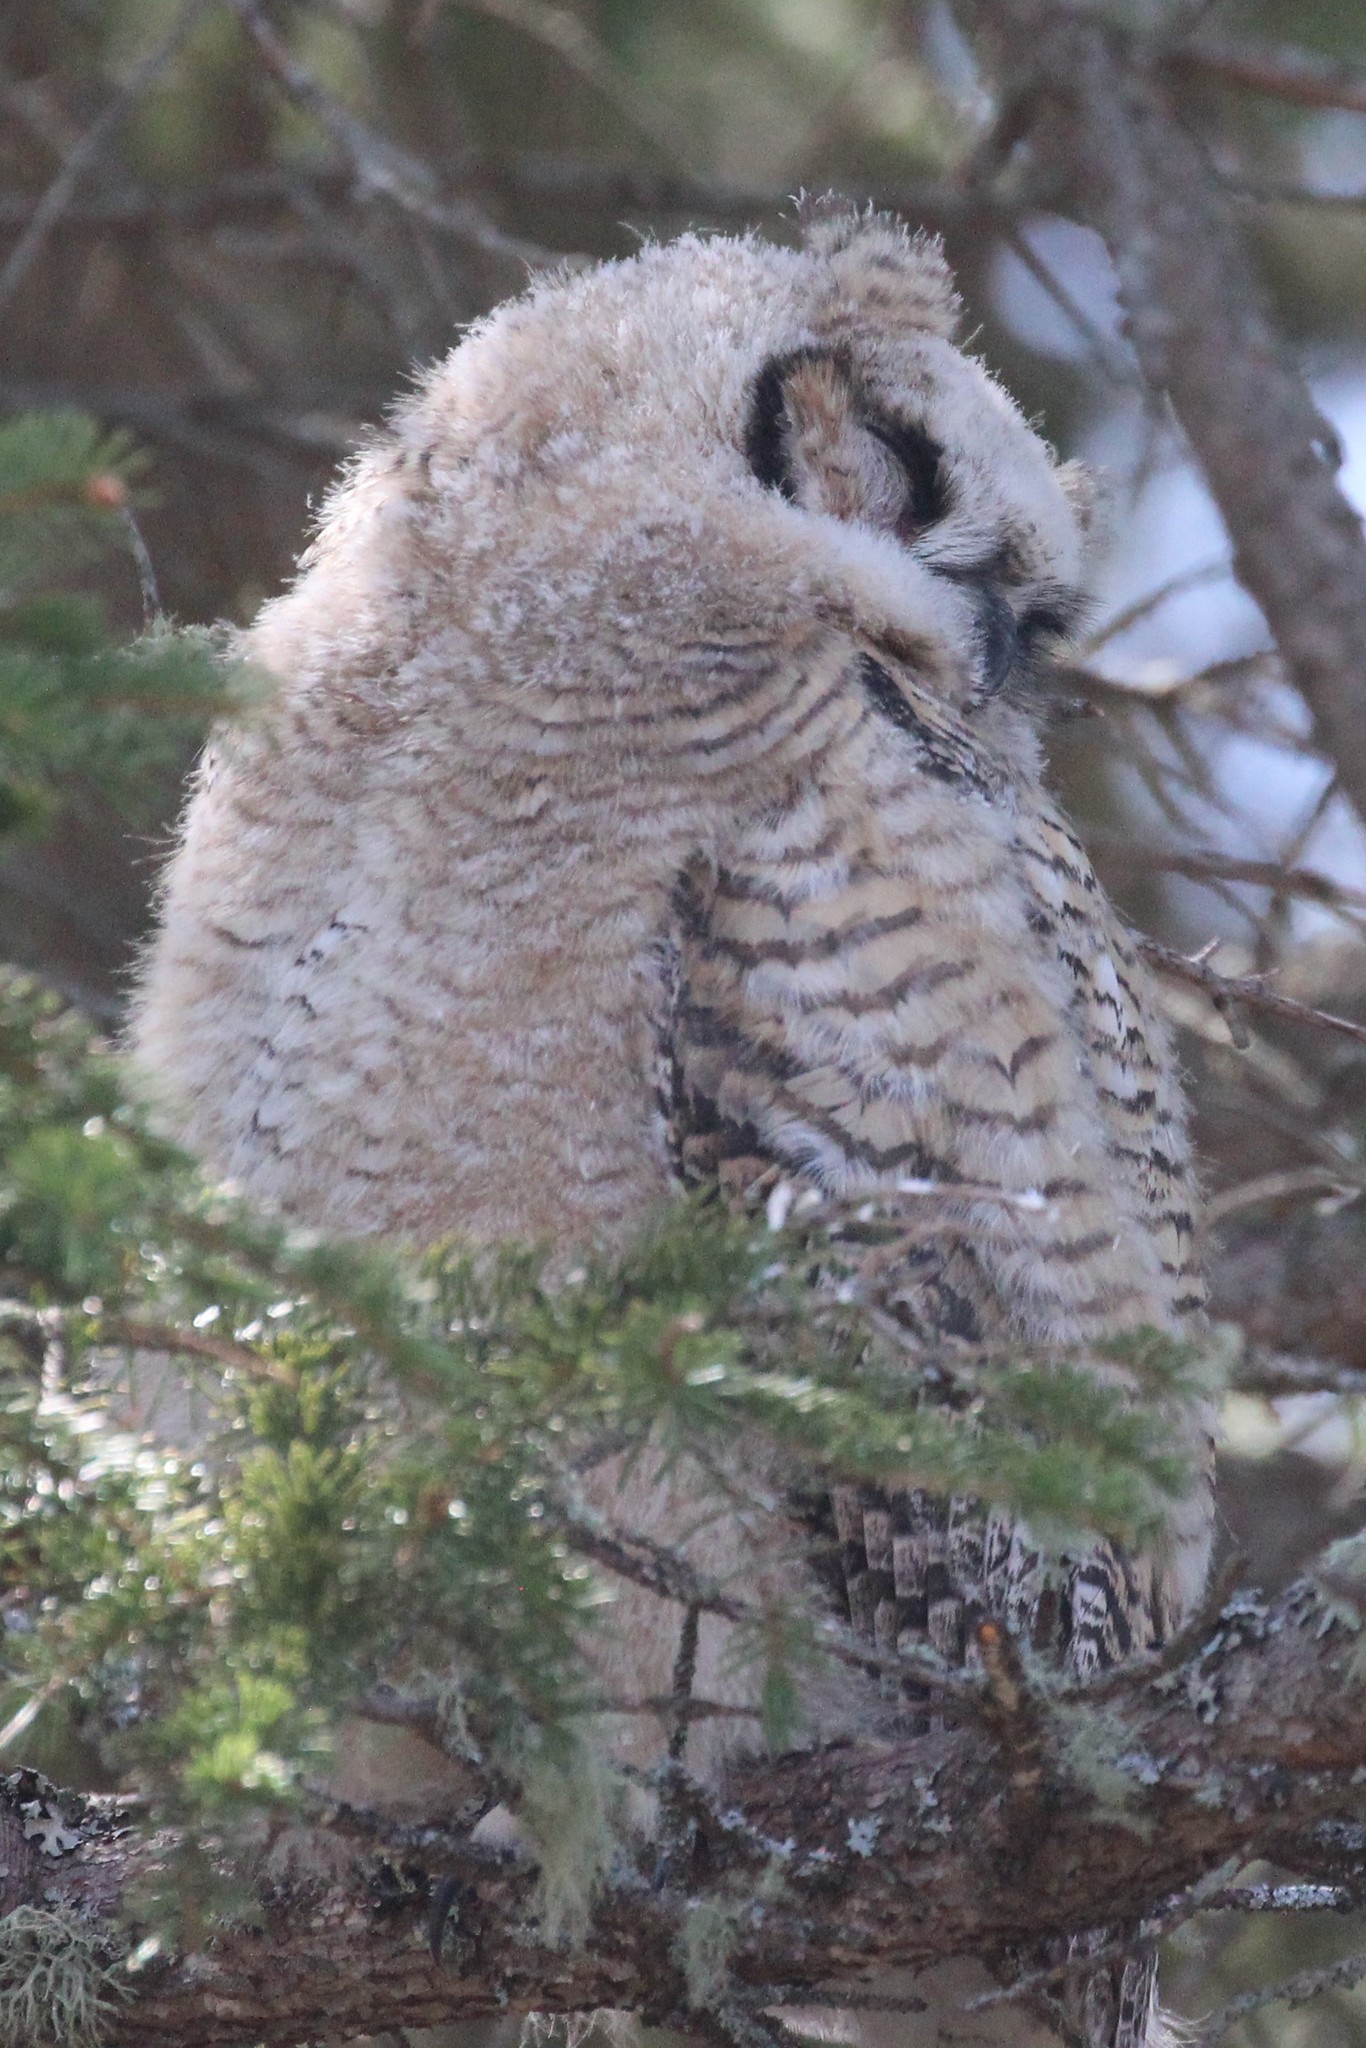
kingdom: Animalia
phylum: Chordata
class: Aves
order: Strigiformes
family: Strigidae
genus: Bubo
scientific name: Bubo virginianus
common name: Great horned owl
